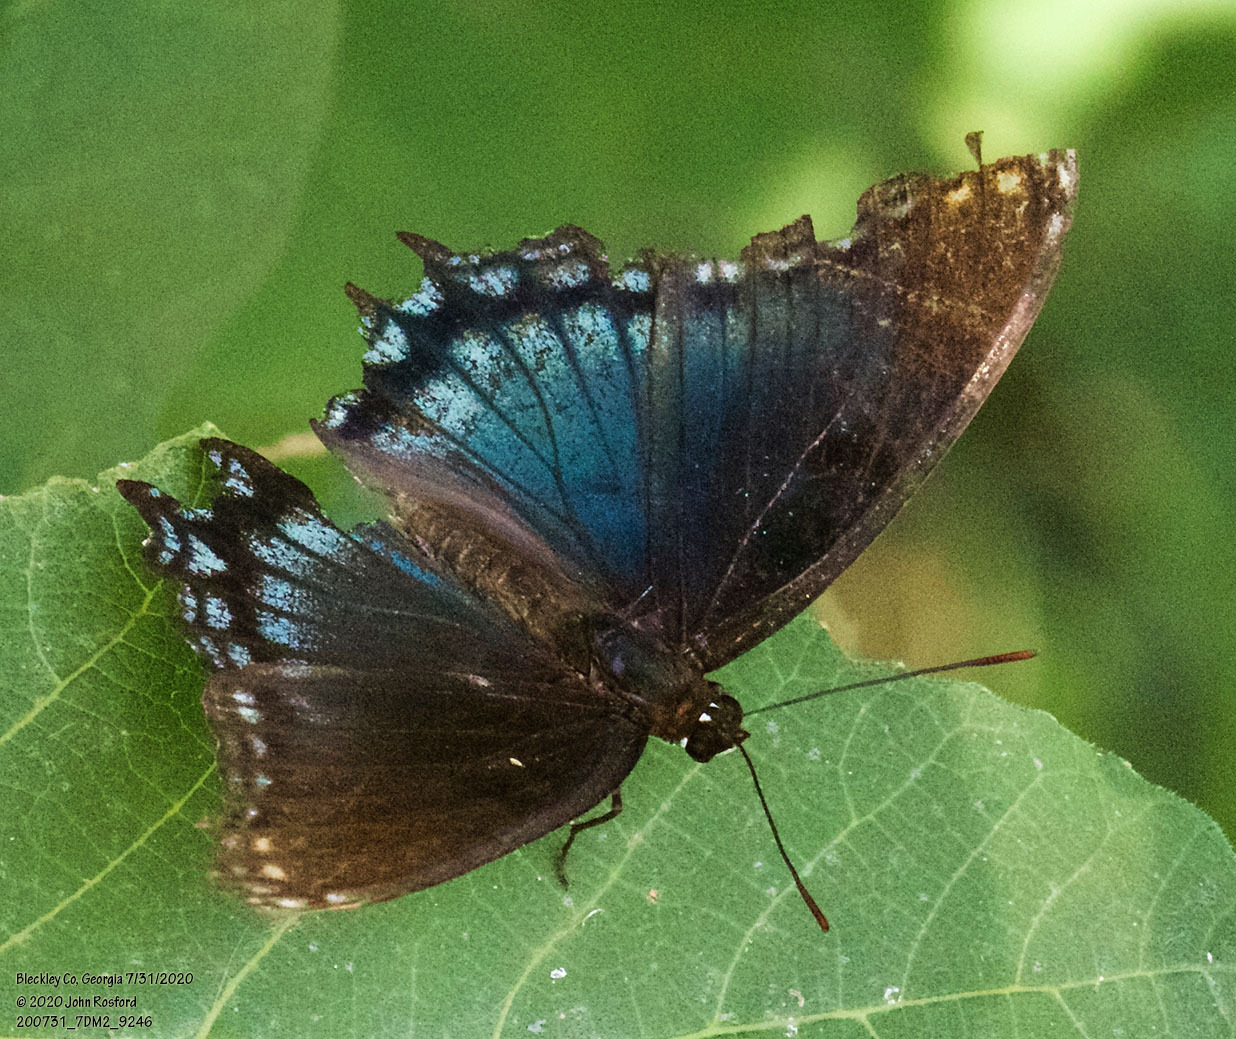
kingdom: Animalia
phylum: Arthropoda
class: Insecta
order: Lepidoptera
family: Nymphalidae
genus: Limenitis
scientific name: Limenitis arthemis
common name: Red-spotted admiral
